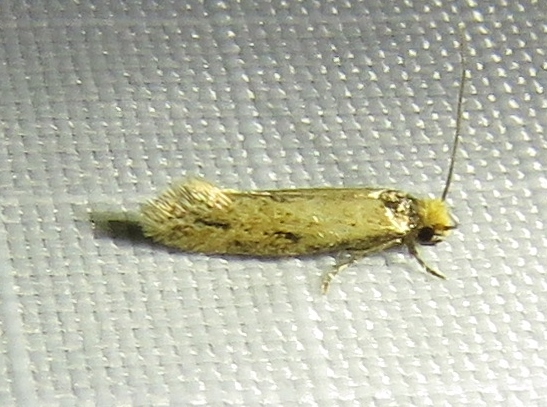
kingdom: Animalia
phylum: Arthropoda
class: Insecta
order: Lepidoptera
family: Meessiidae
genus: Homostinea
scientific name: Homostinea curviliniella
